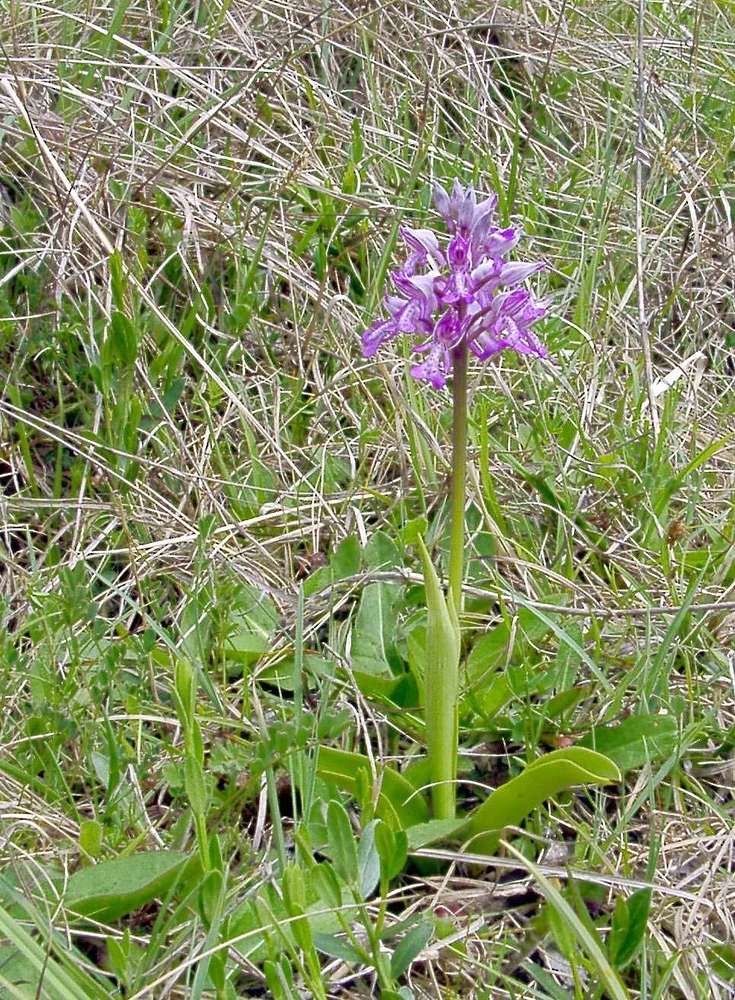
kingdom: Plantae
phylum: Tracheophyta
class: Liliopsida
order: Asparagales
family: Orchidaceae
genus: Orchis
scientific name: Orchis militaris
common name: Military orchid
